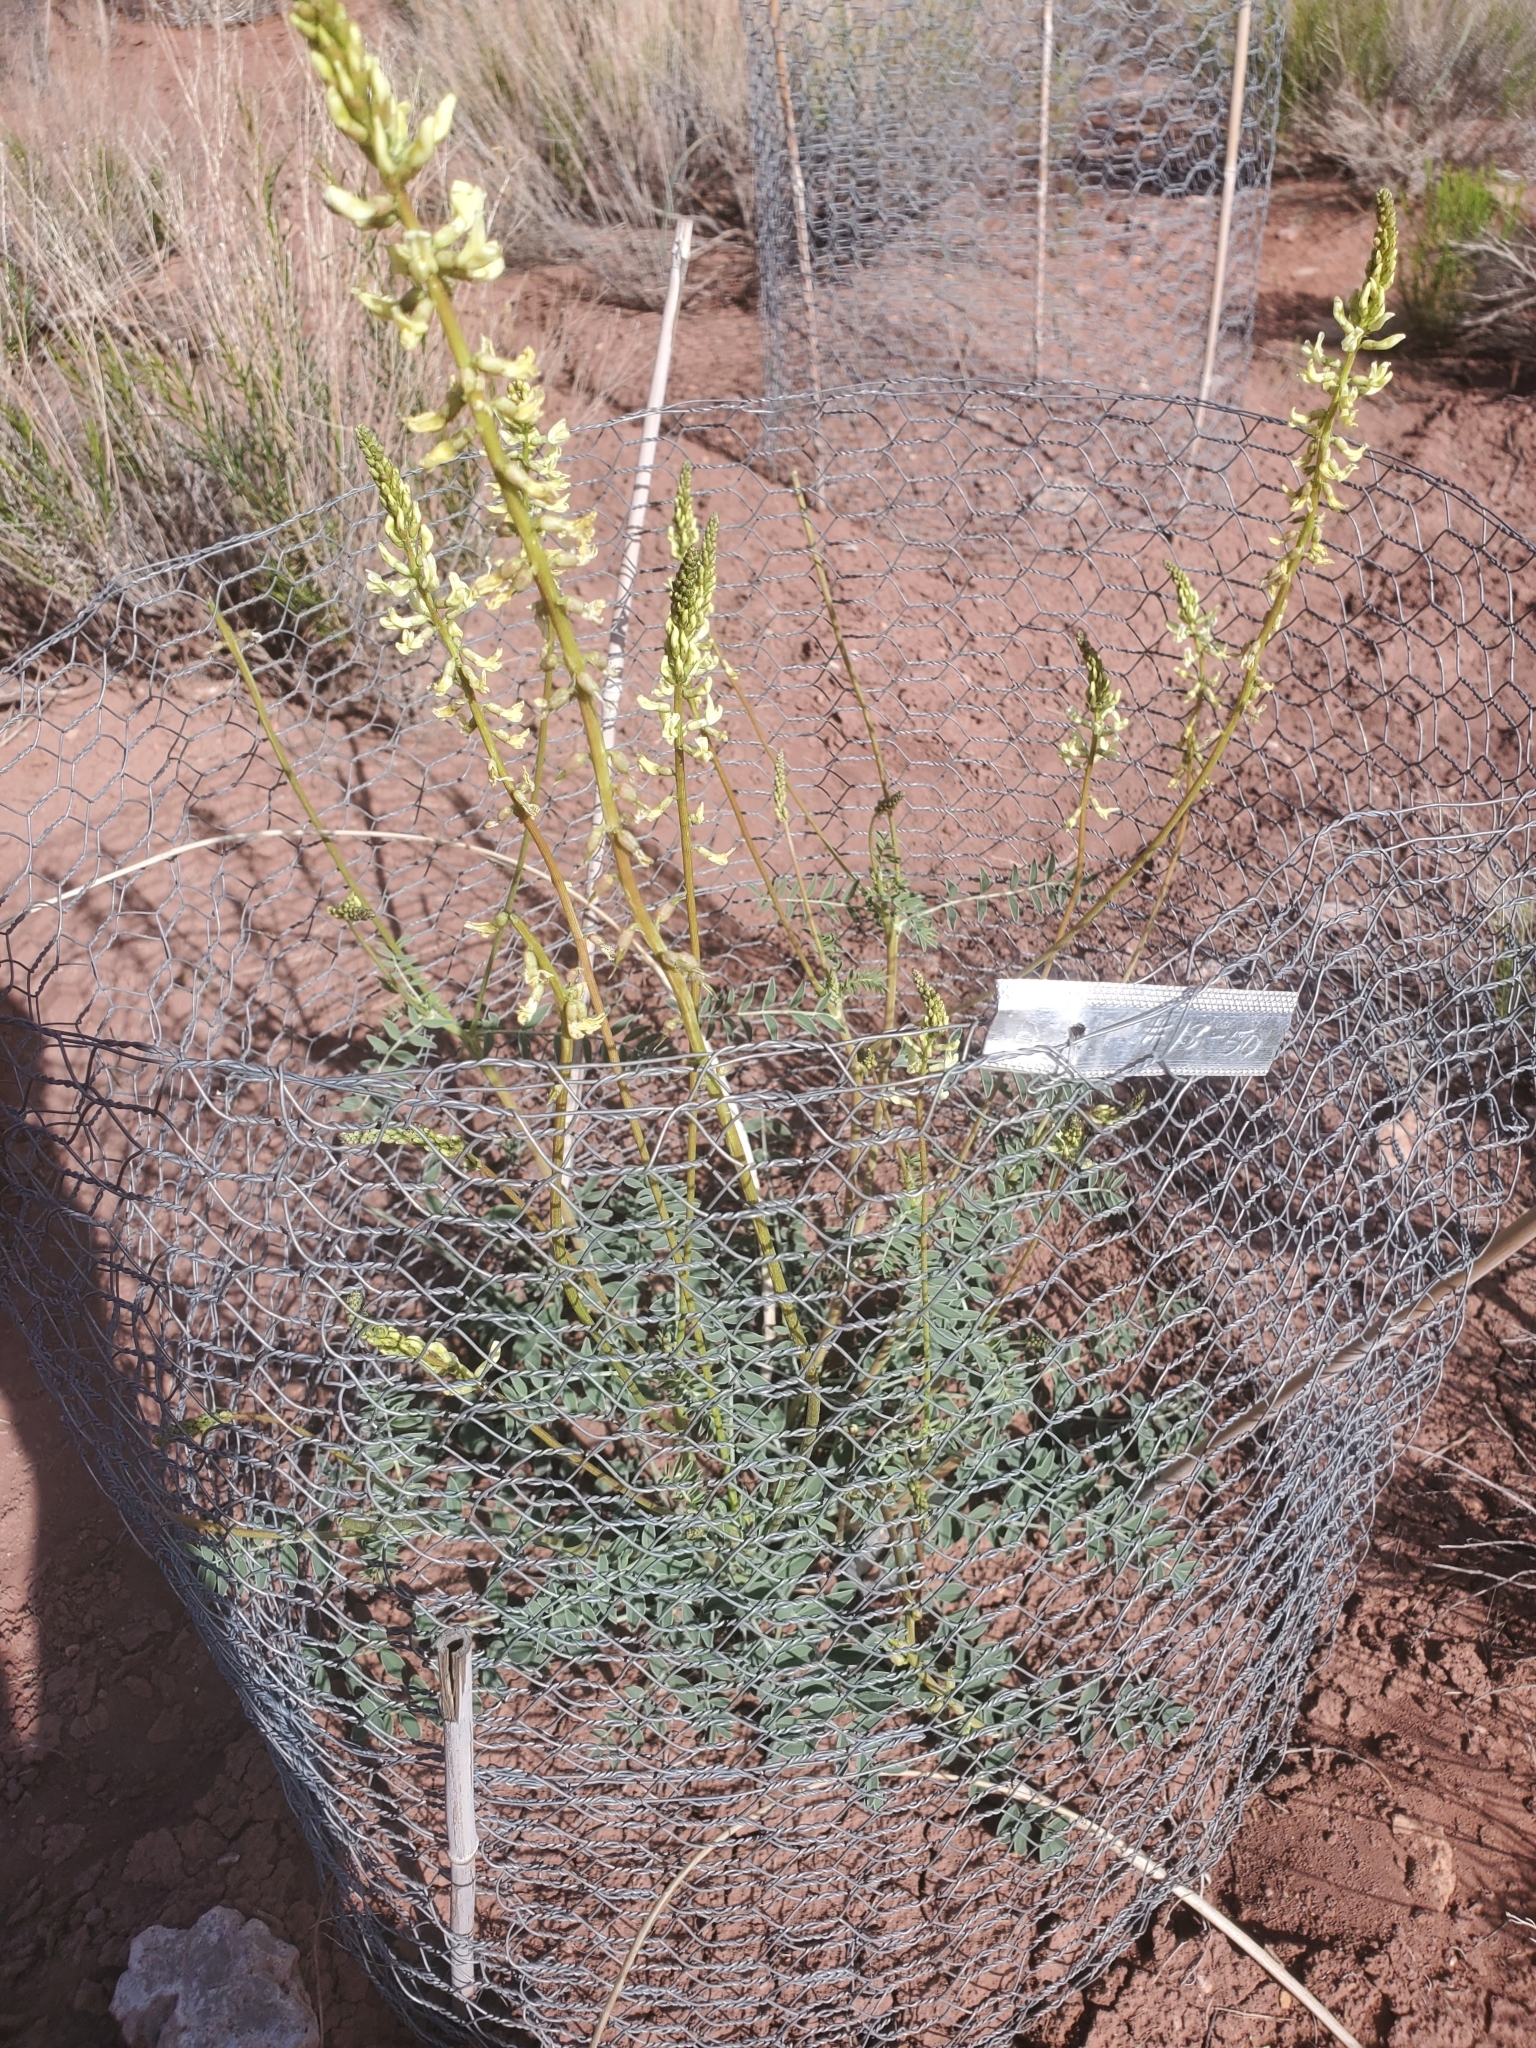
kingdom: Plantae
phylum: Tracheophyta
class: Magnoliopsida
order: Fabales
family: Fabaceae
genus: Astragalus
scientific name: Astragalus ampullarioides
